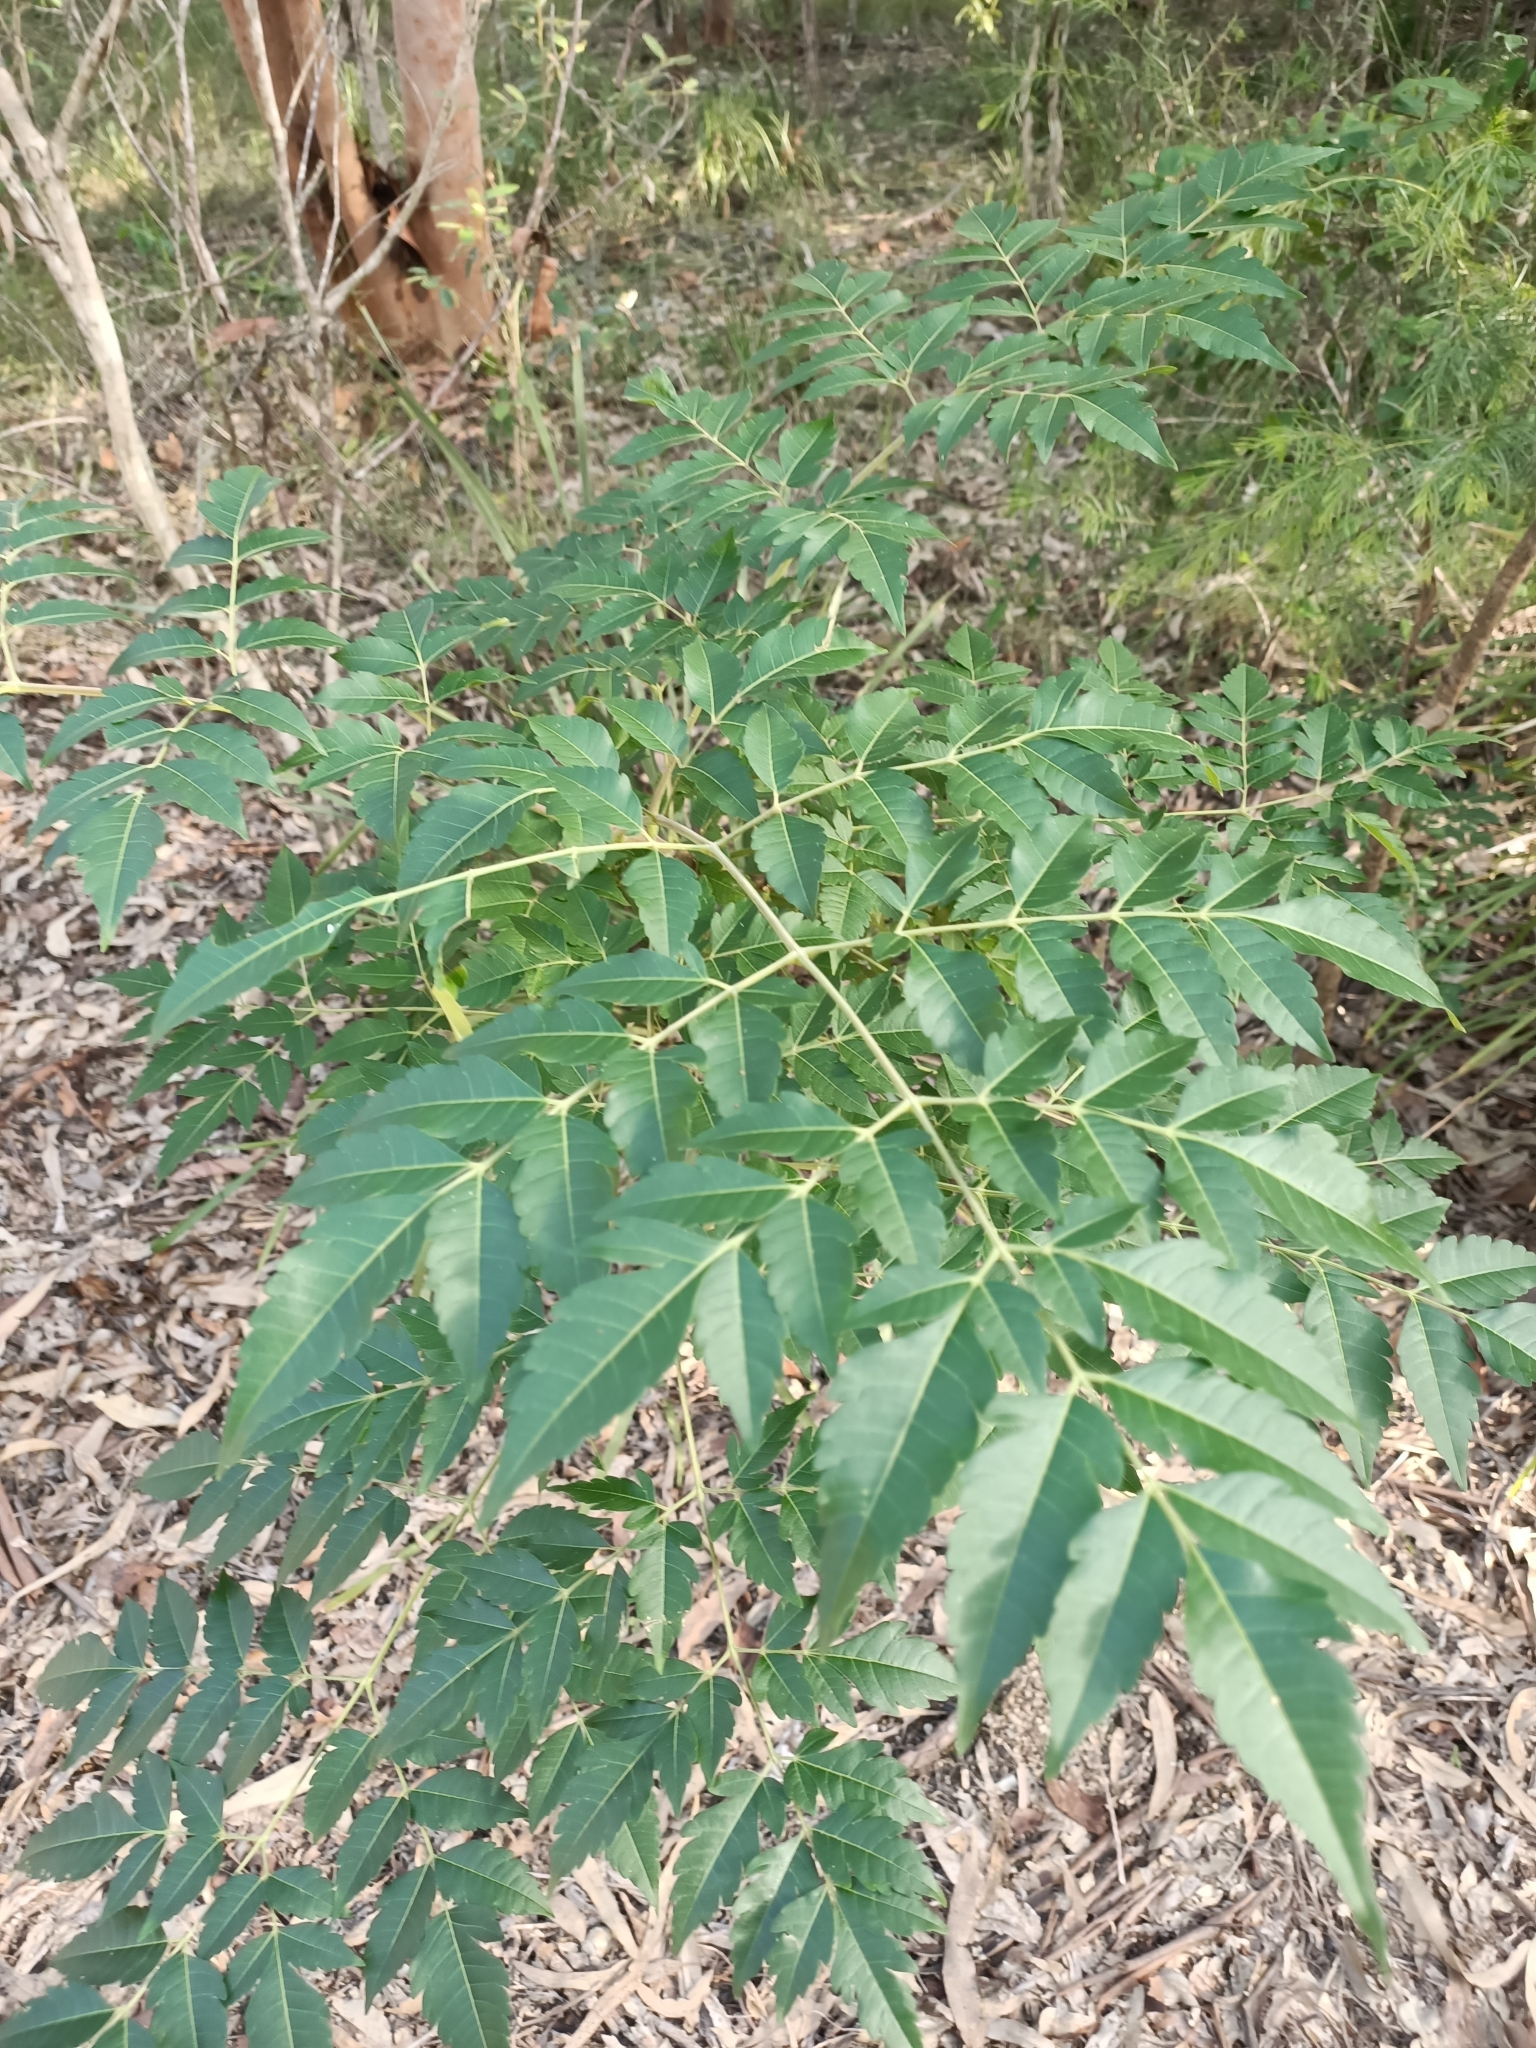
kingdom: Plantae
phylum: Tracheophyta
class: Magnoliopsida
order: Sapindales
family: Meliaceae
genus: Melia
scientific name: Melia azedarach
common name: Chinaberrytree
